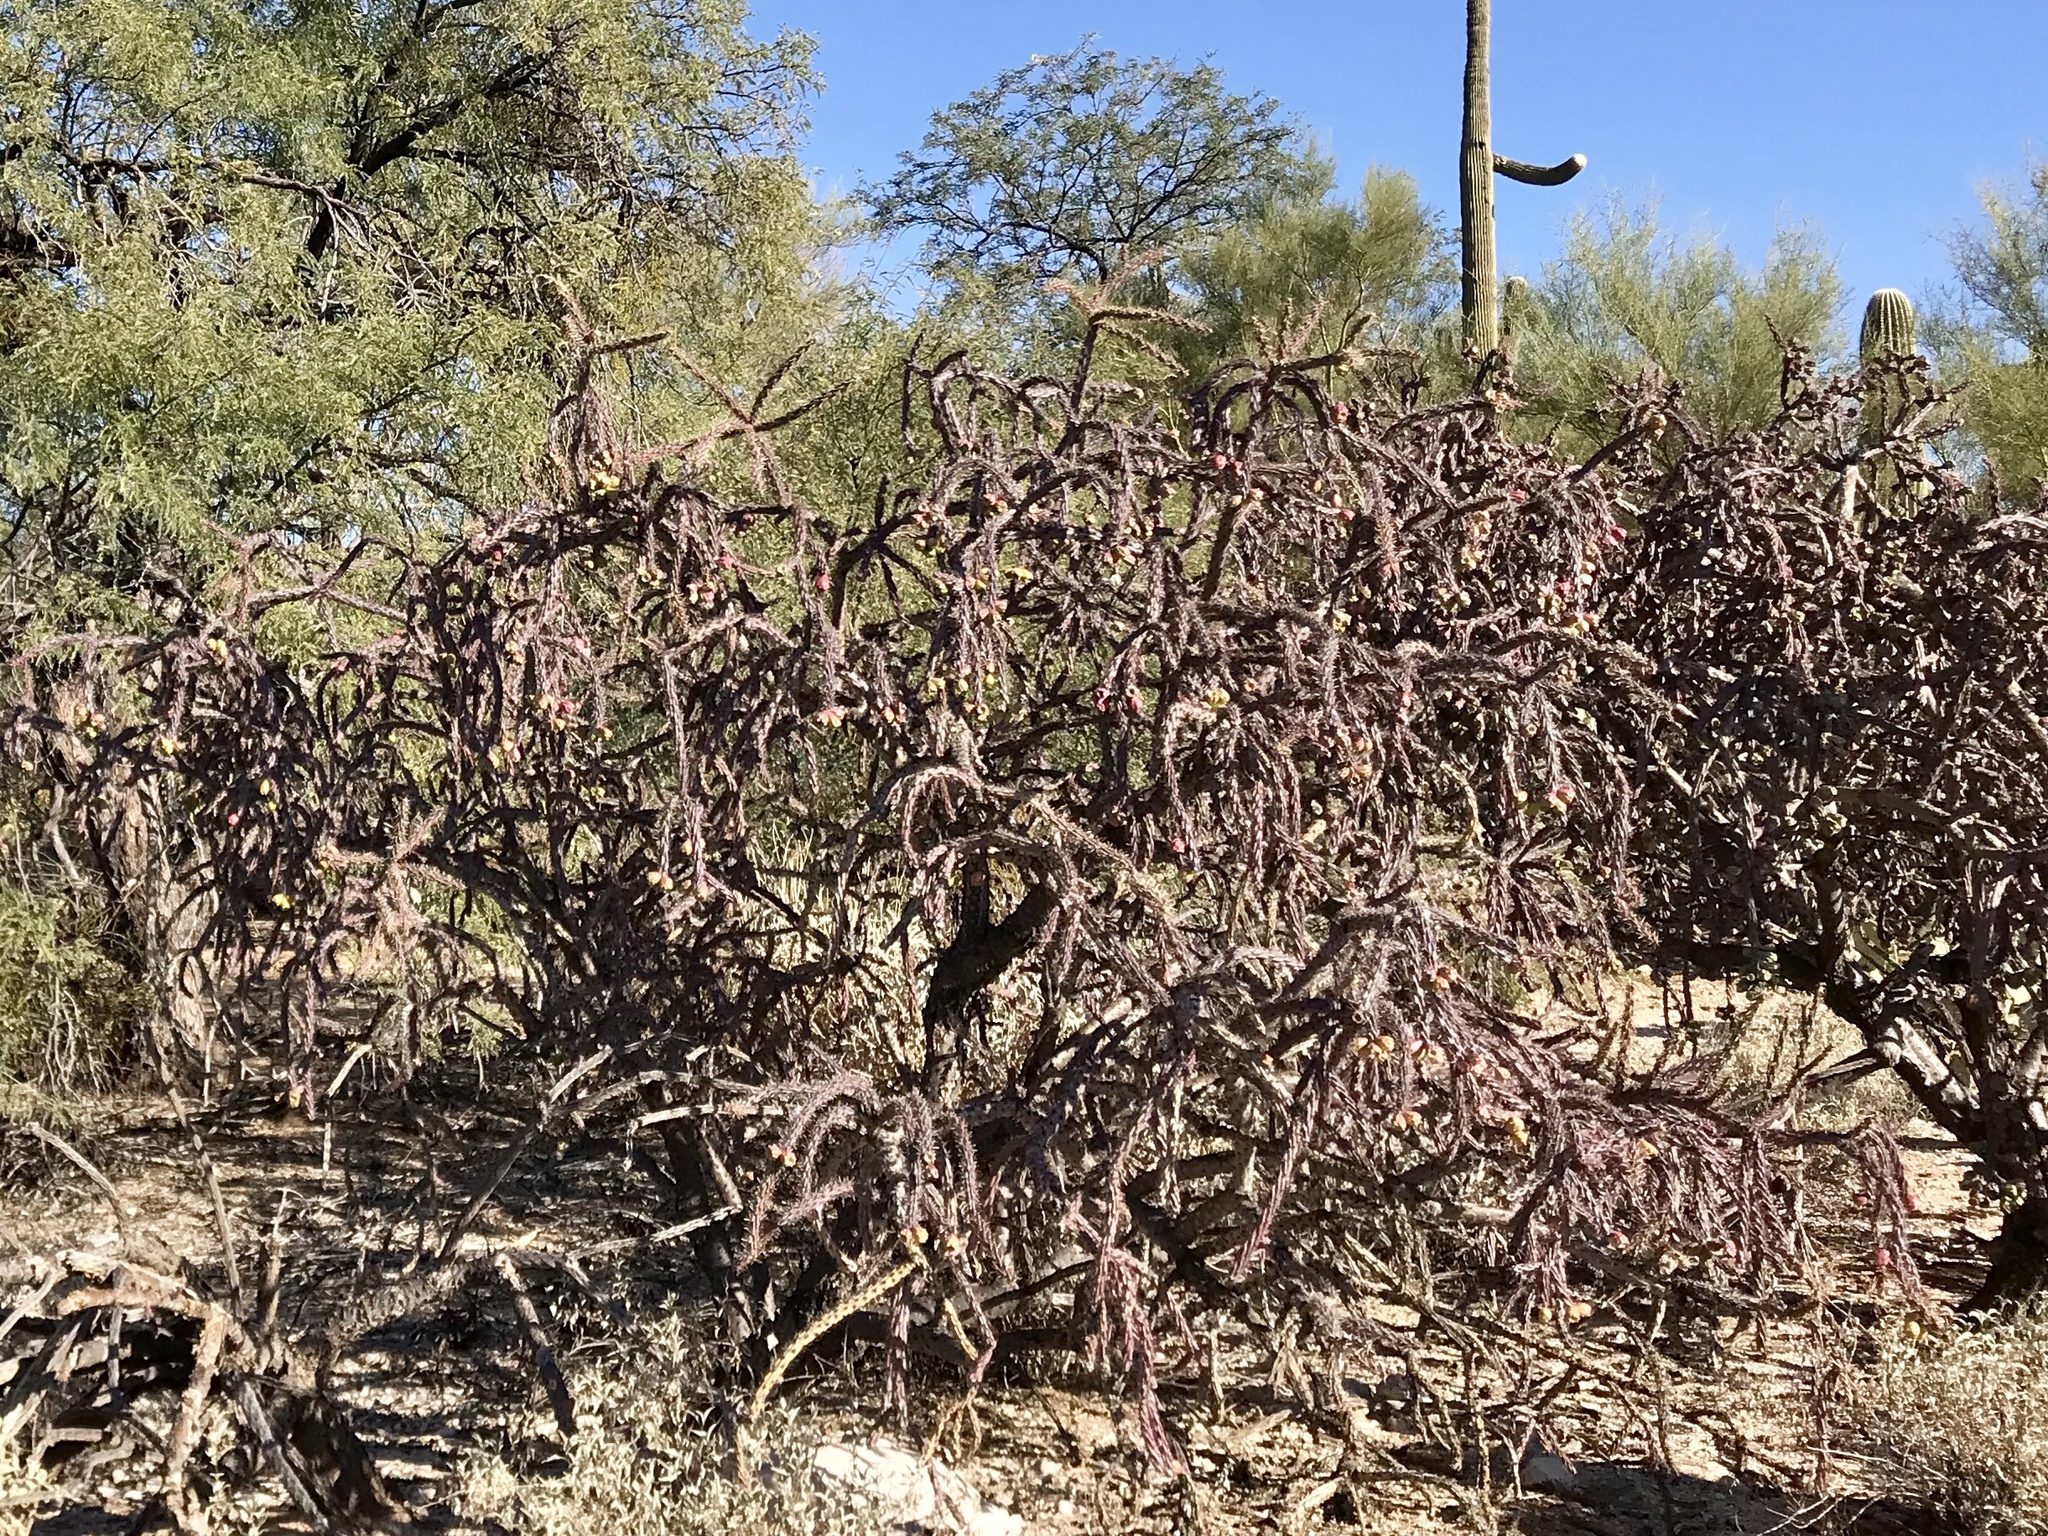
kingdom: Plantae
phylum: Tracheophyta
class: Magnoliopsida
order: Caryophyllales
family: Cactaceae
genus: Cylindropuntia
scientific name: Cylindropuntia thurberi
